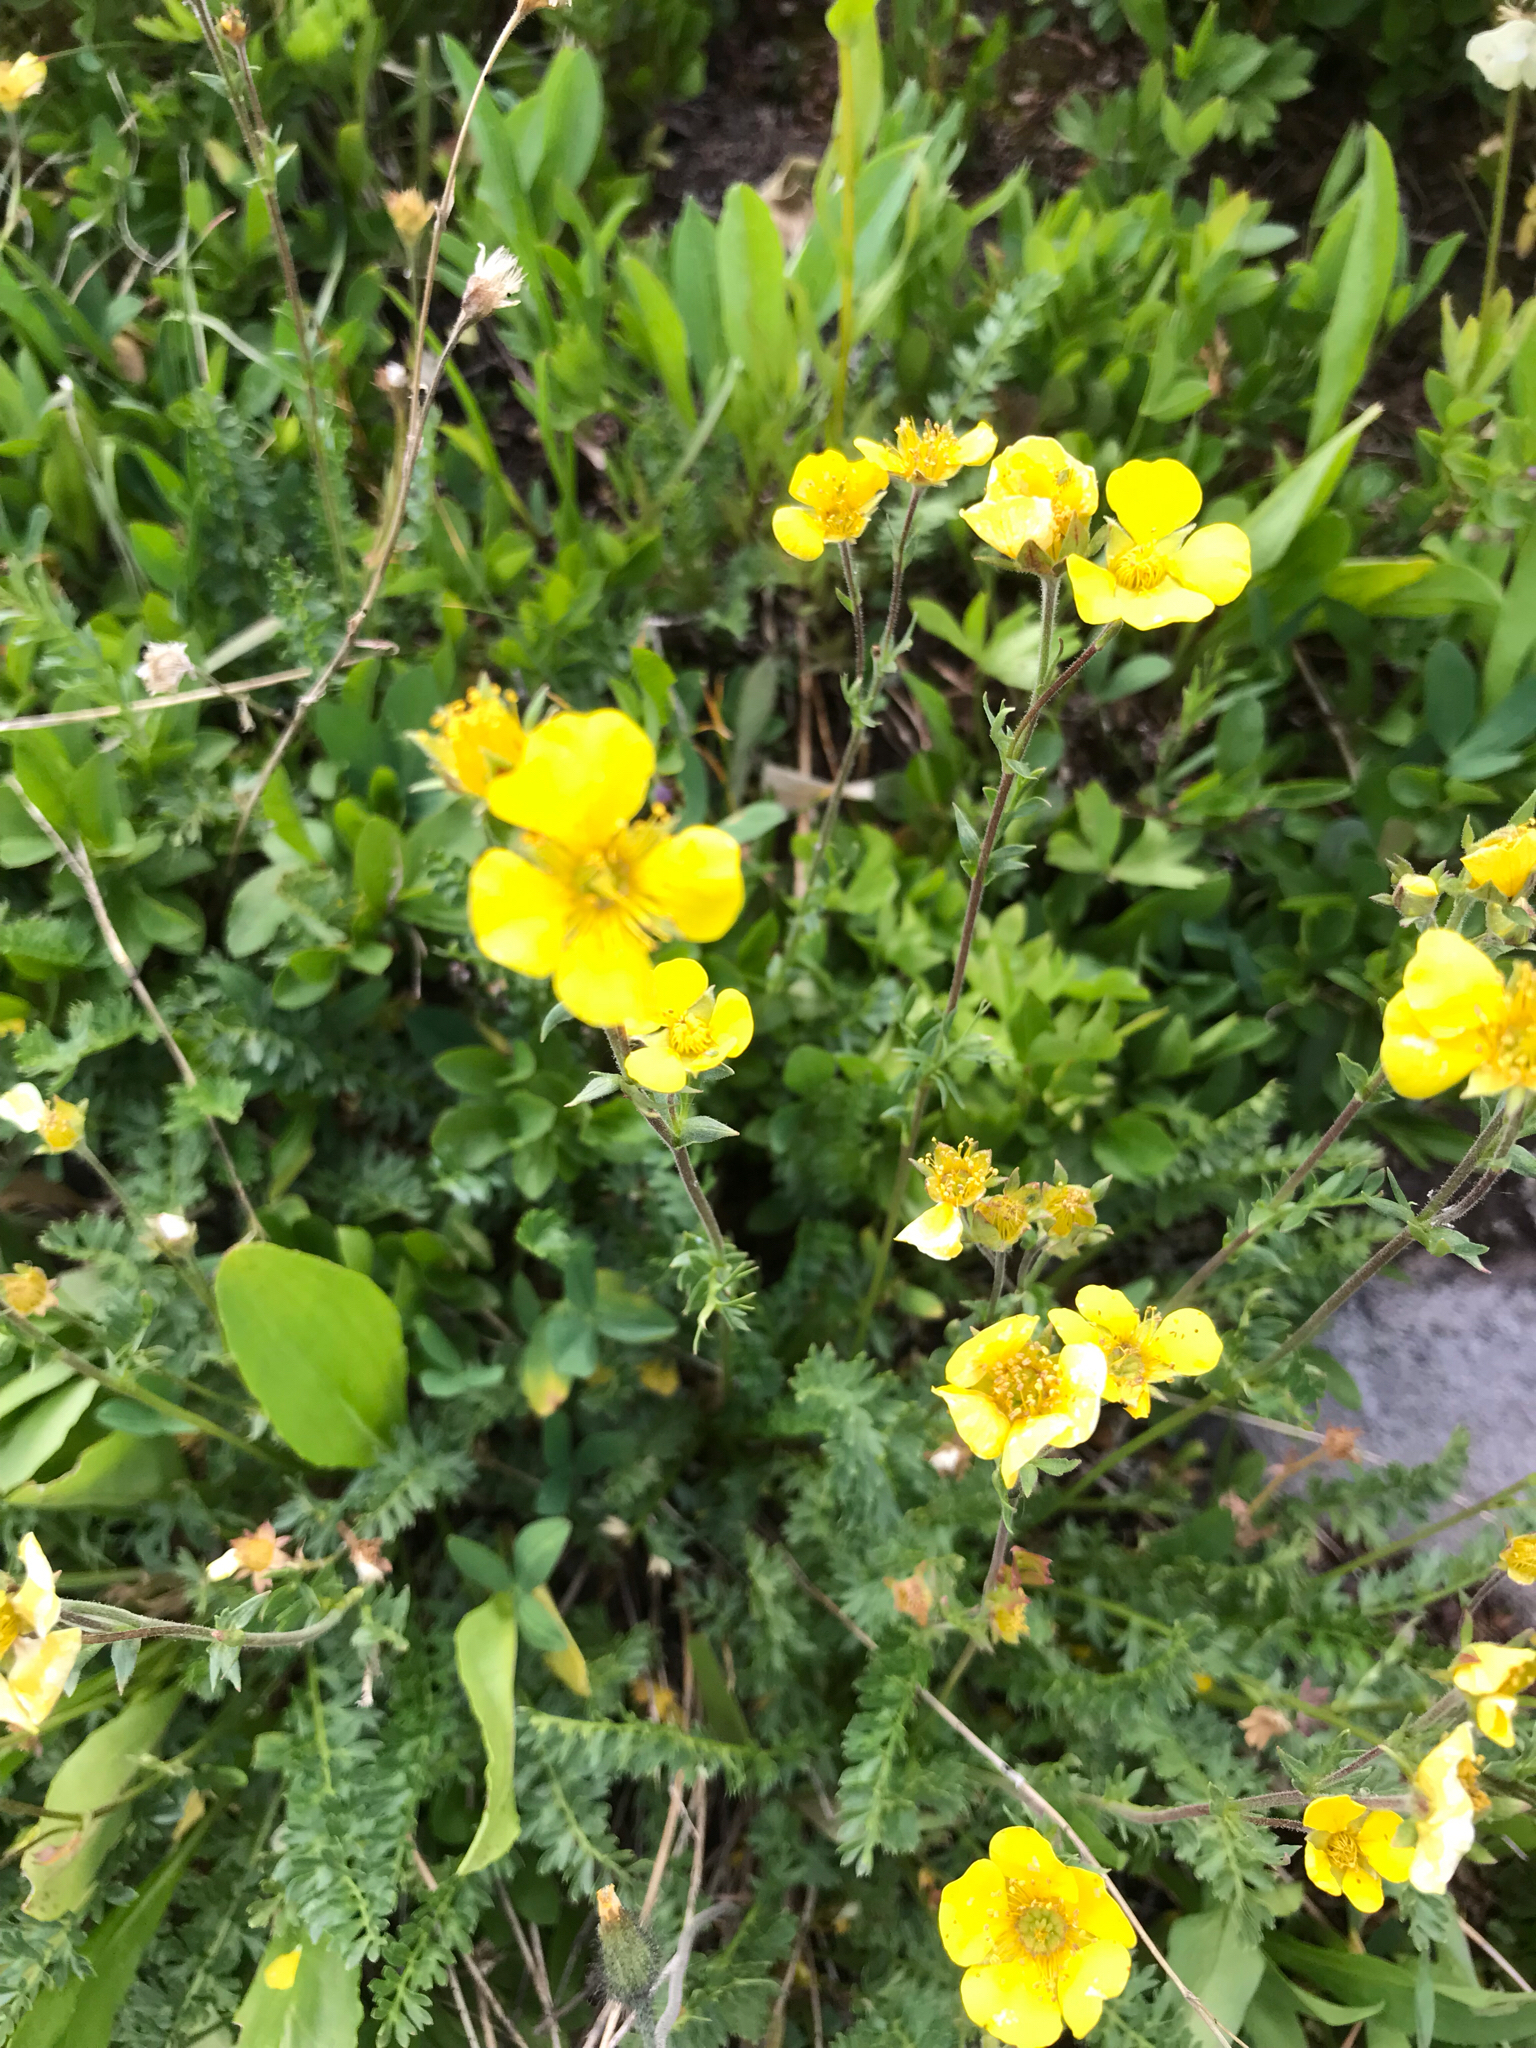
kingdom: Plantae
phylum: Tracheophyta
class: Magnoliopsida
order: Rosales
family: Rosaceae
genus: Geum
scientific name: Geum rossii
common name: Alpine avens
